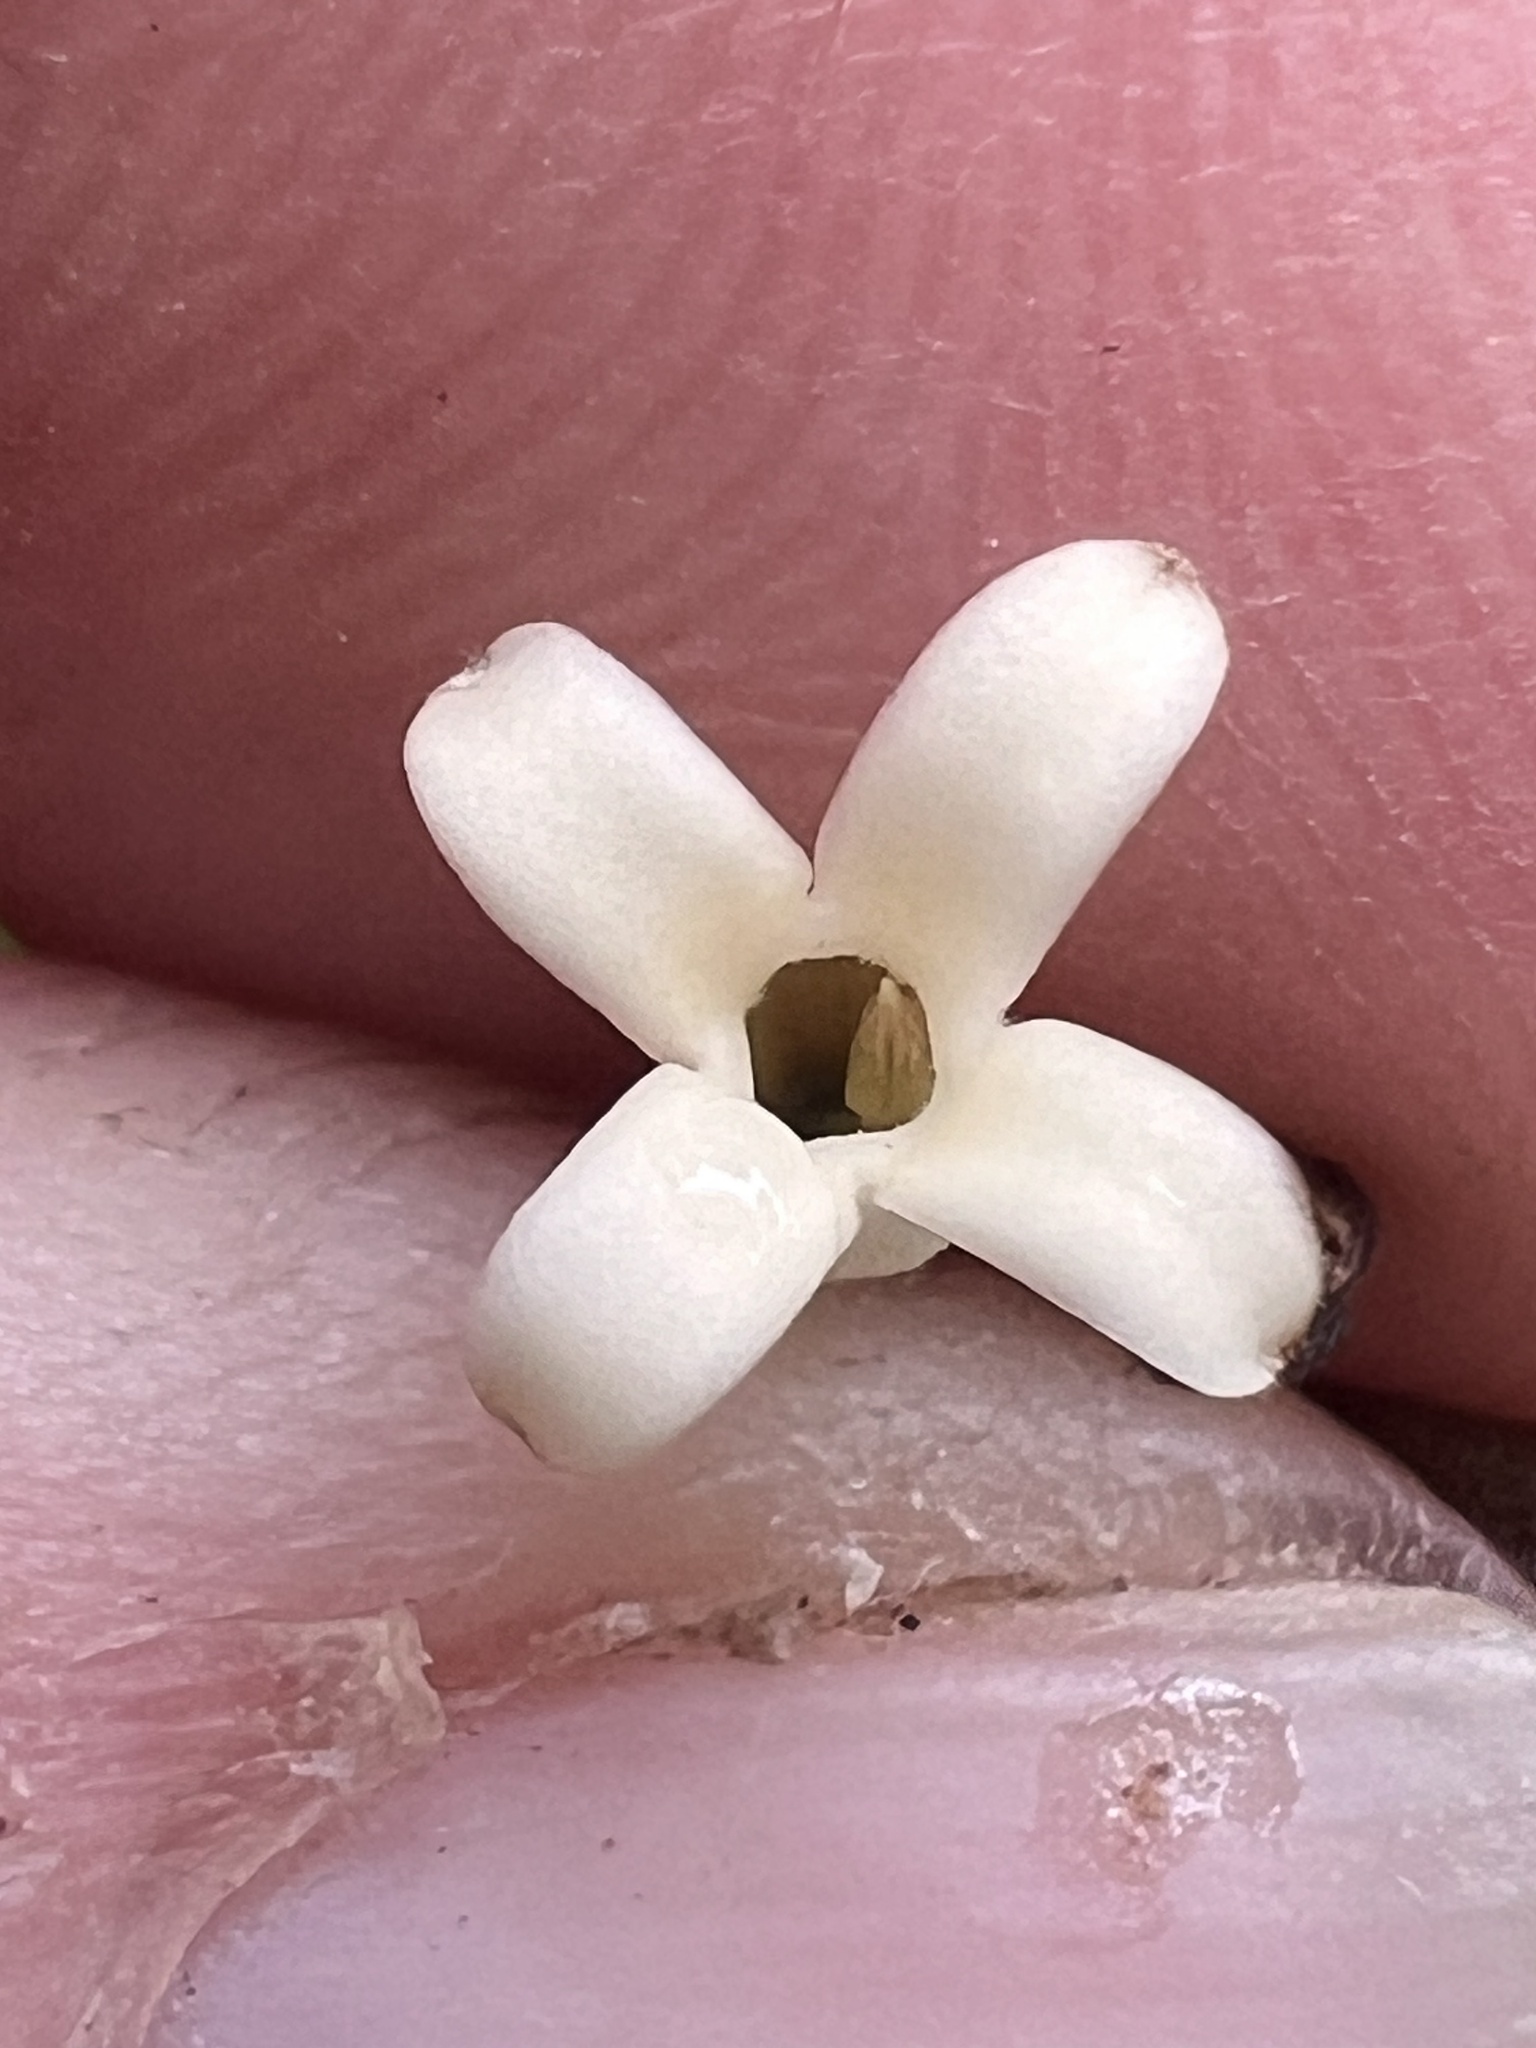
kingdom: Plantae
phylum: Tracheophyta
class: Magnoliopsida
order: Gentianales
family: Apocynaceae
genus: Parsonsia
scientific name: Parsonsia heterophylla
